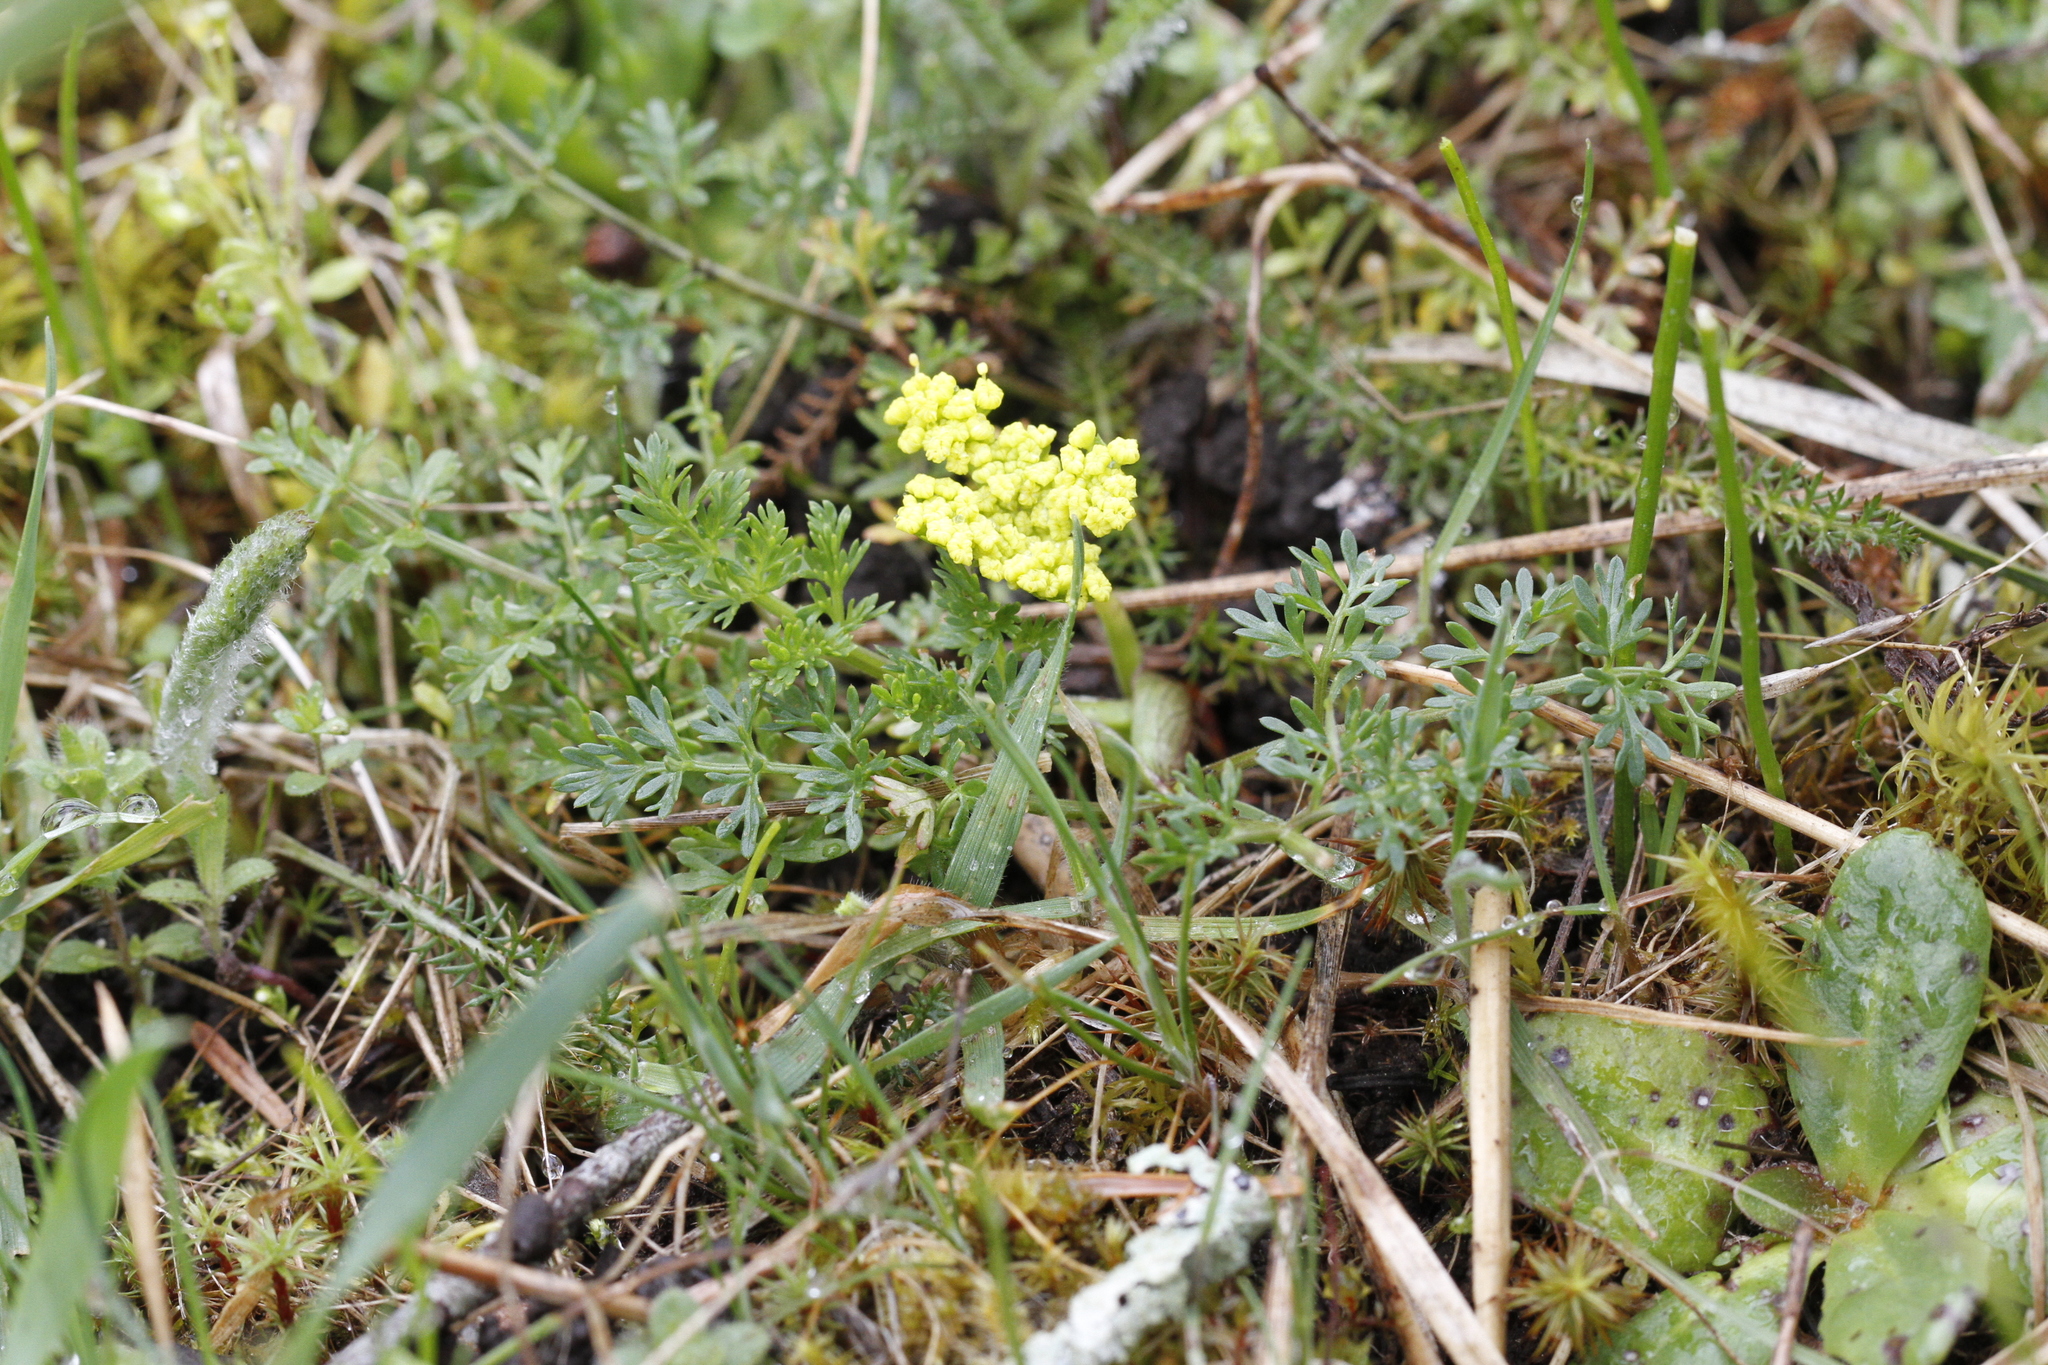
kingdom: Plantae
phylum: Tracheophyta
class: Magnoliopsida
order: Apiales
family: Apiaceae
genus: Lomatium
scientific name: Lomatium utriculatum
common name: Fine-leaf desert-parsley
